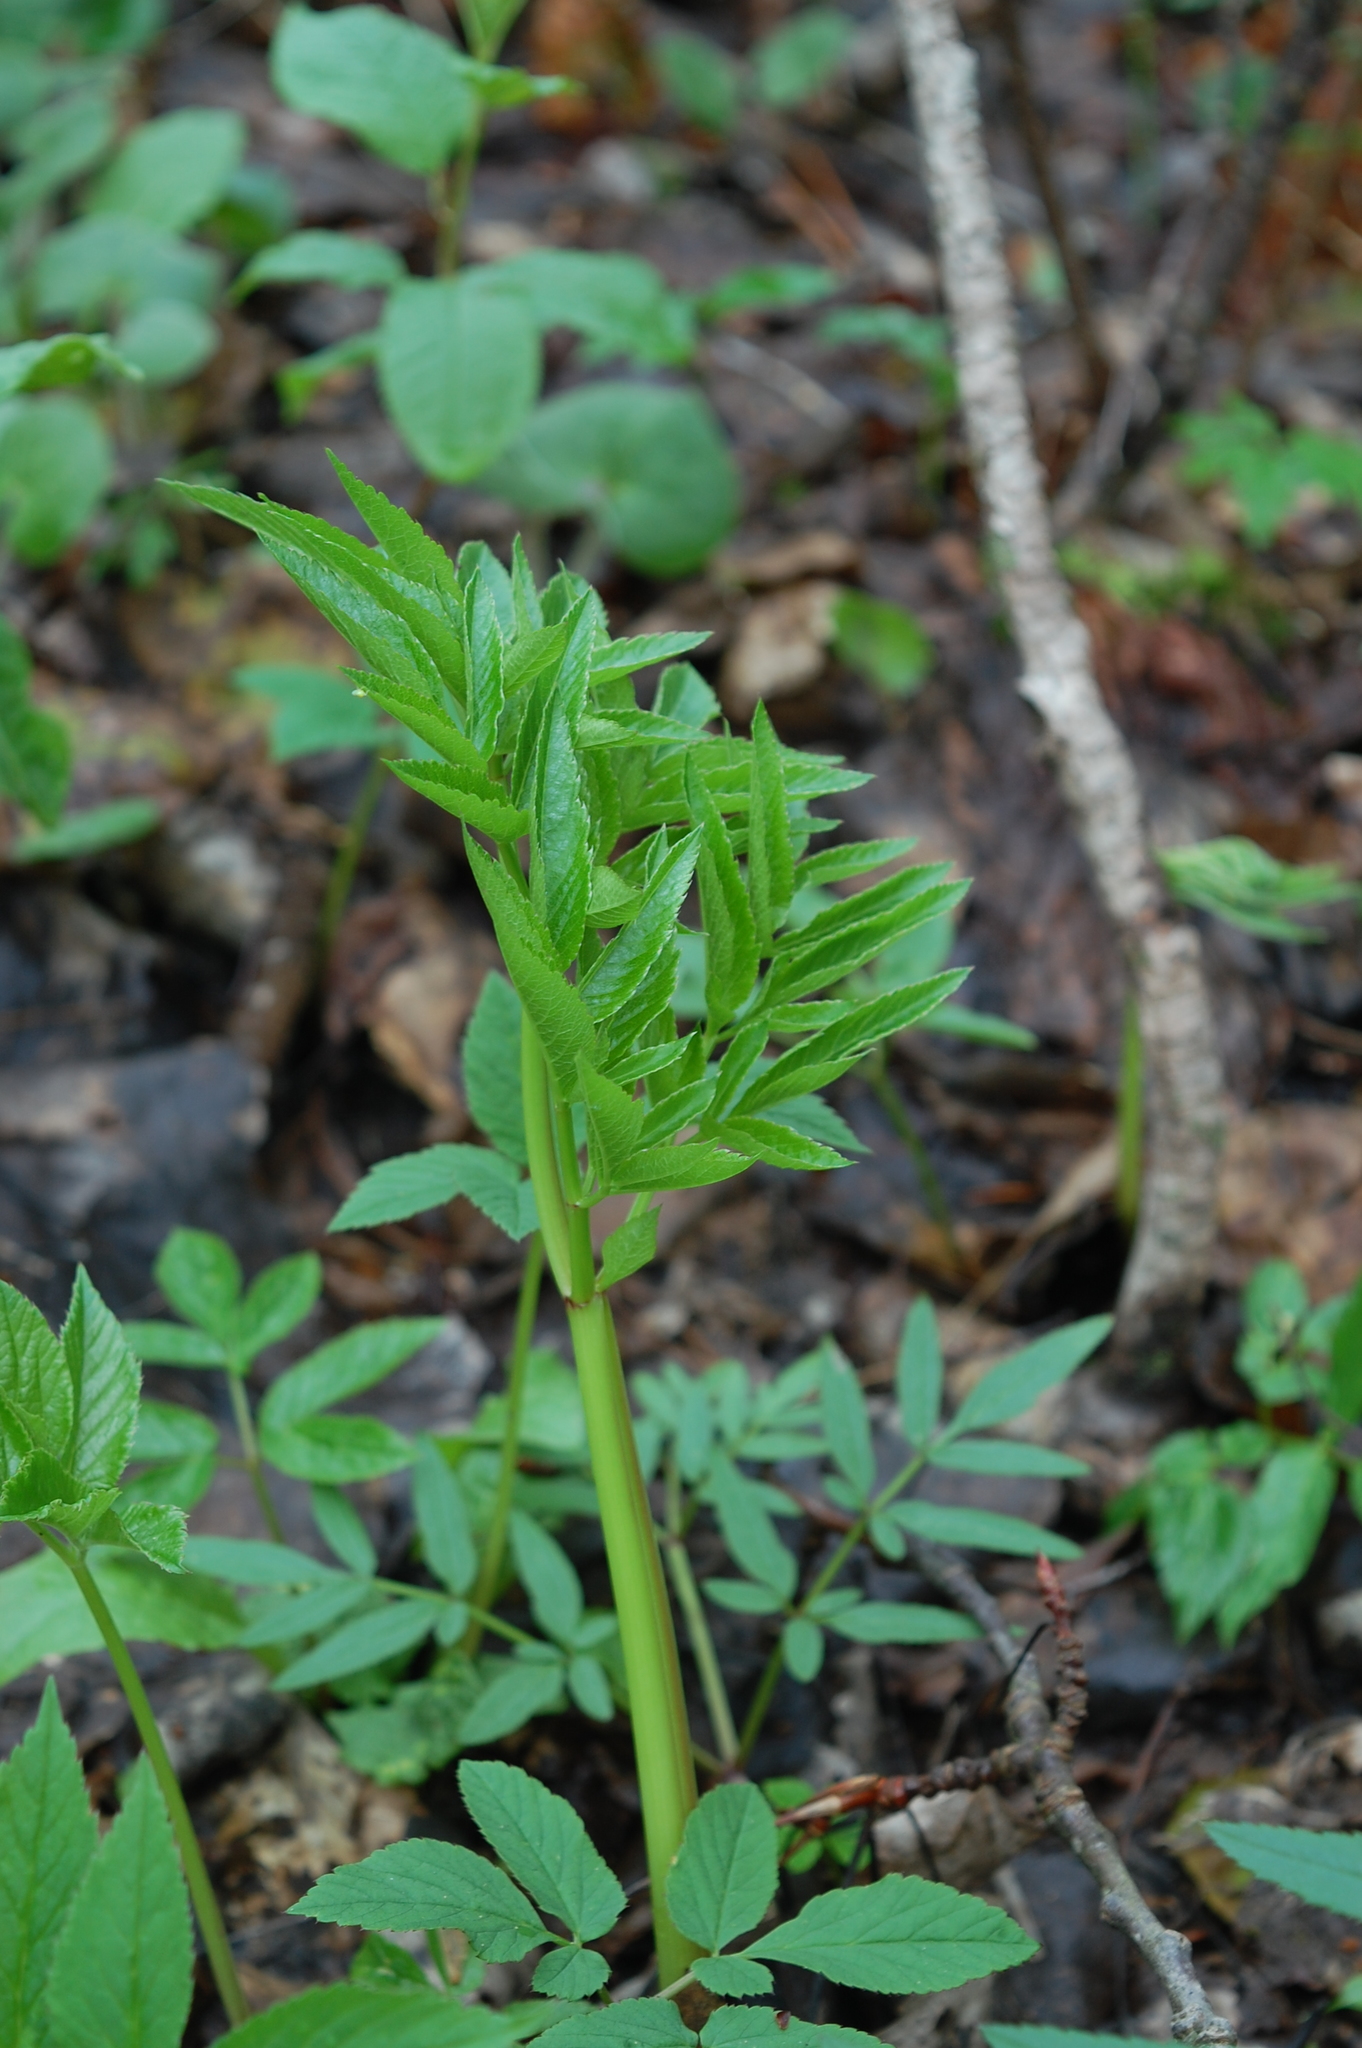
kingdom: Plantae
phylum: Tracheophyta
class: Magnoliopsida
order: Apiales
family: Apiaceae
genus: Angelica
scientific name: Angelica sylvestris
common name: Wild angelica
